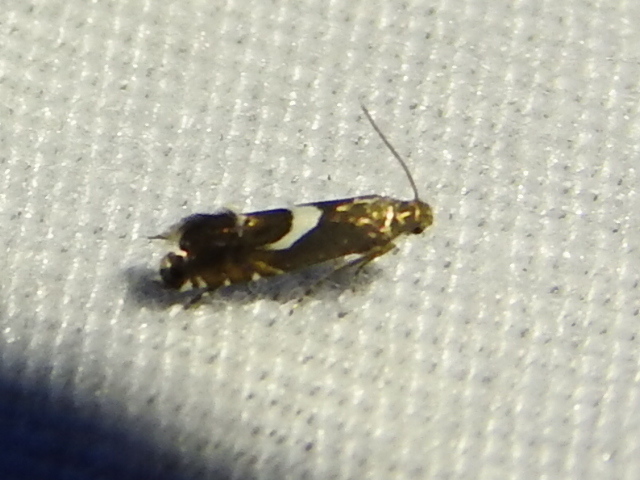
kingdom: Animalia
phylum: Arthropoda
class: Insecta
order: Lepidoptera
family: Glyphipterigidae
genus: Glyphipterix
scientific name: Glyphipterix Diploschizia impigritella
